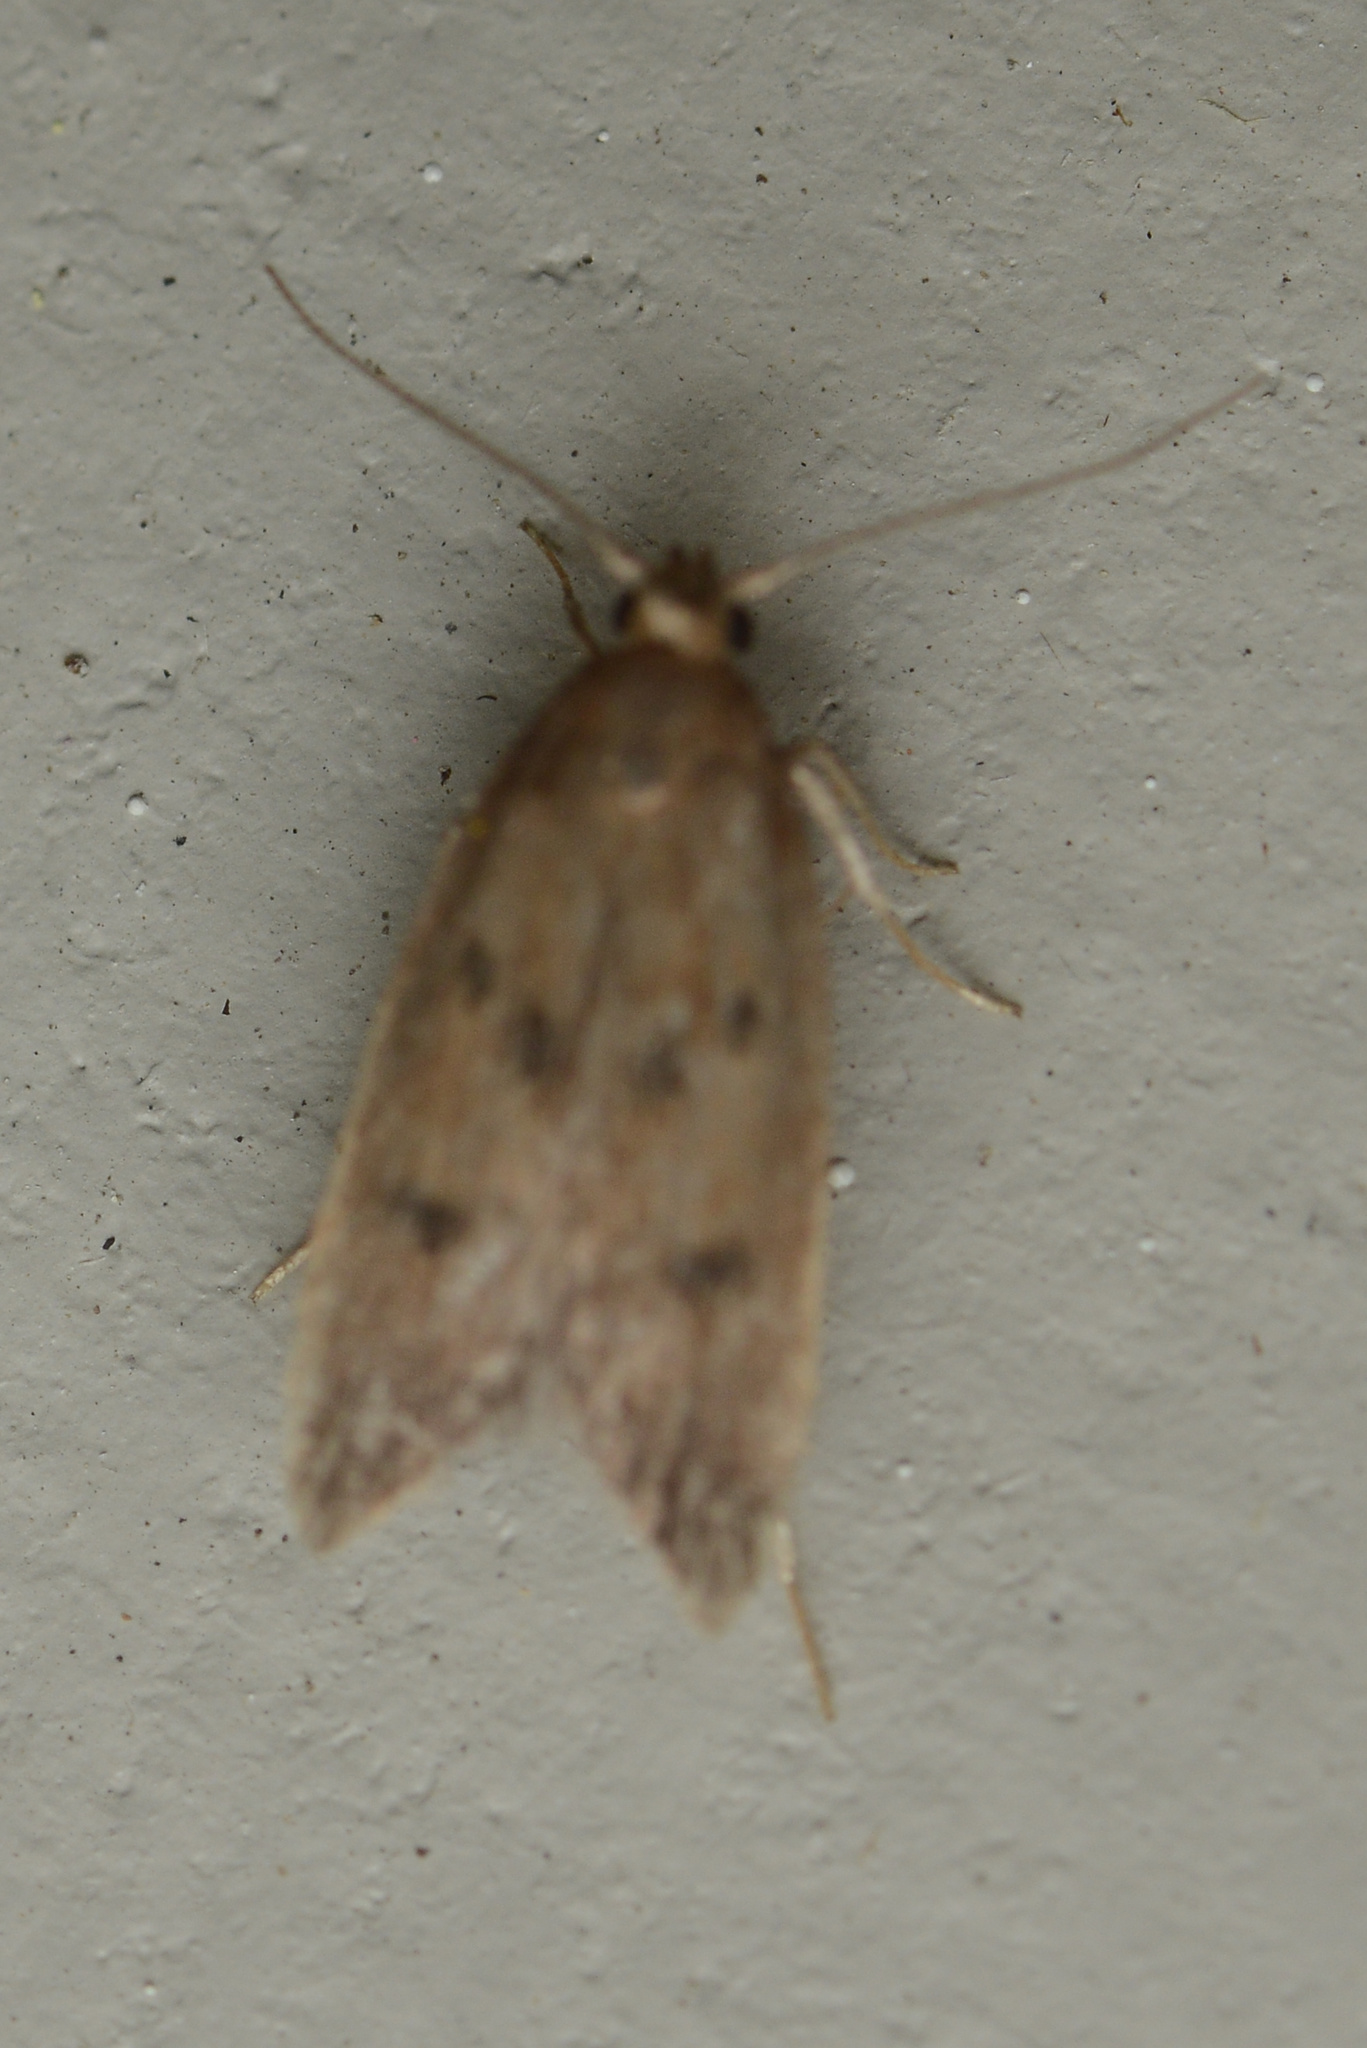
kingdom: Animalia
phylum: Arthropoda
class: Insecta
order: Lepidoptera
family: Oecophoridae
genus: Tachystola
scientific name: Tachystola acroxantha
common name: Ruddy streak
